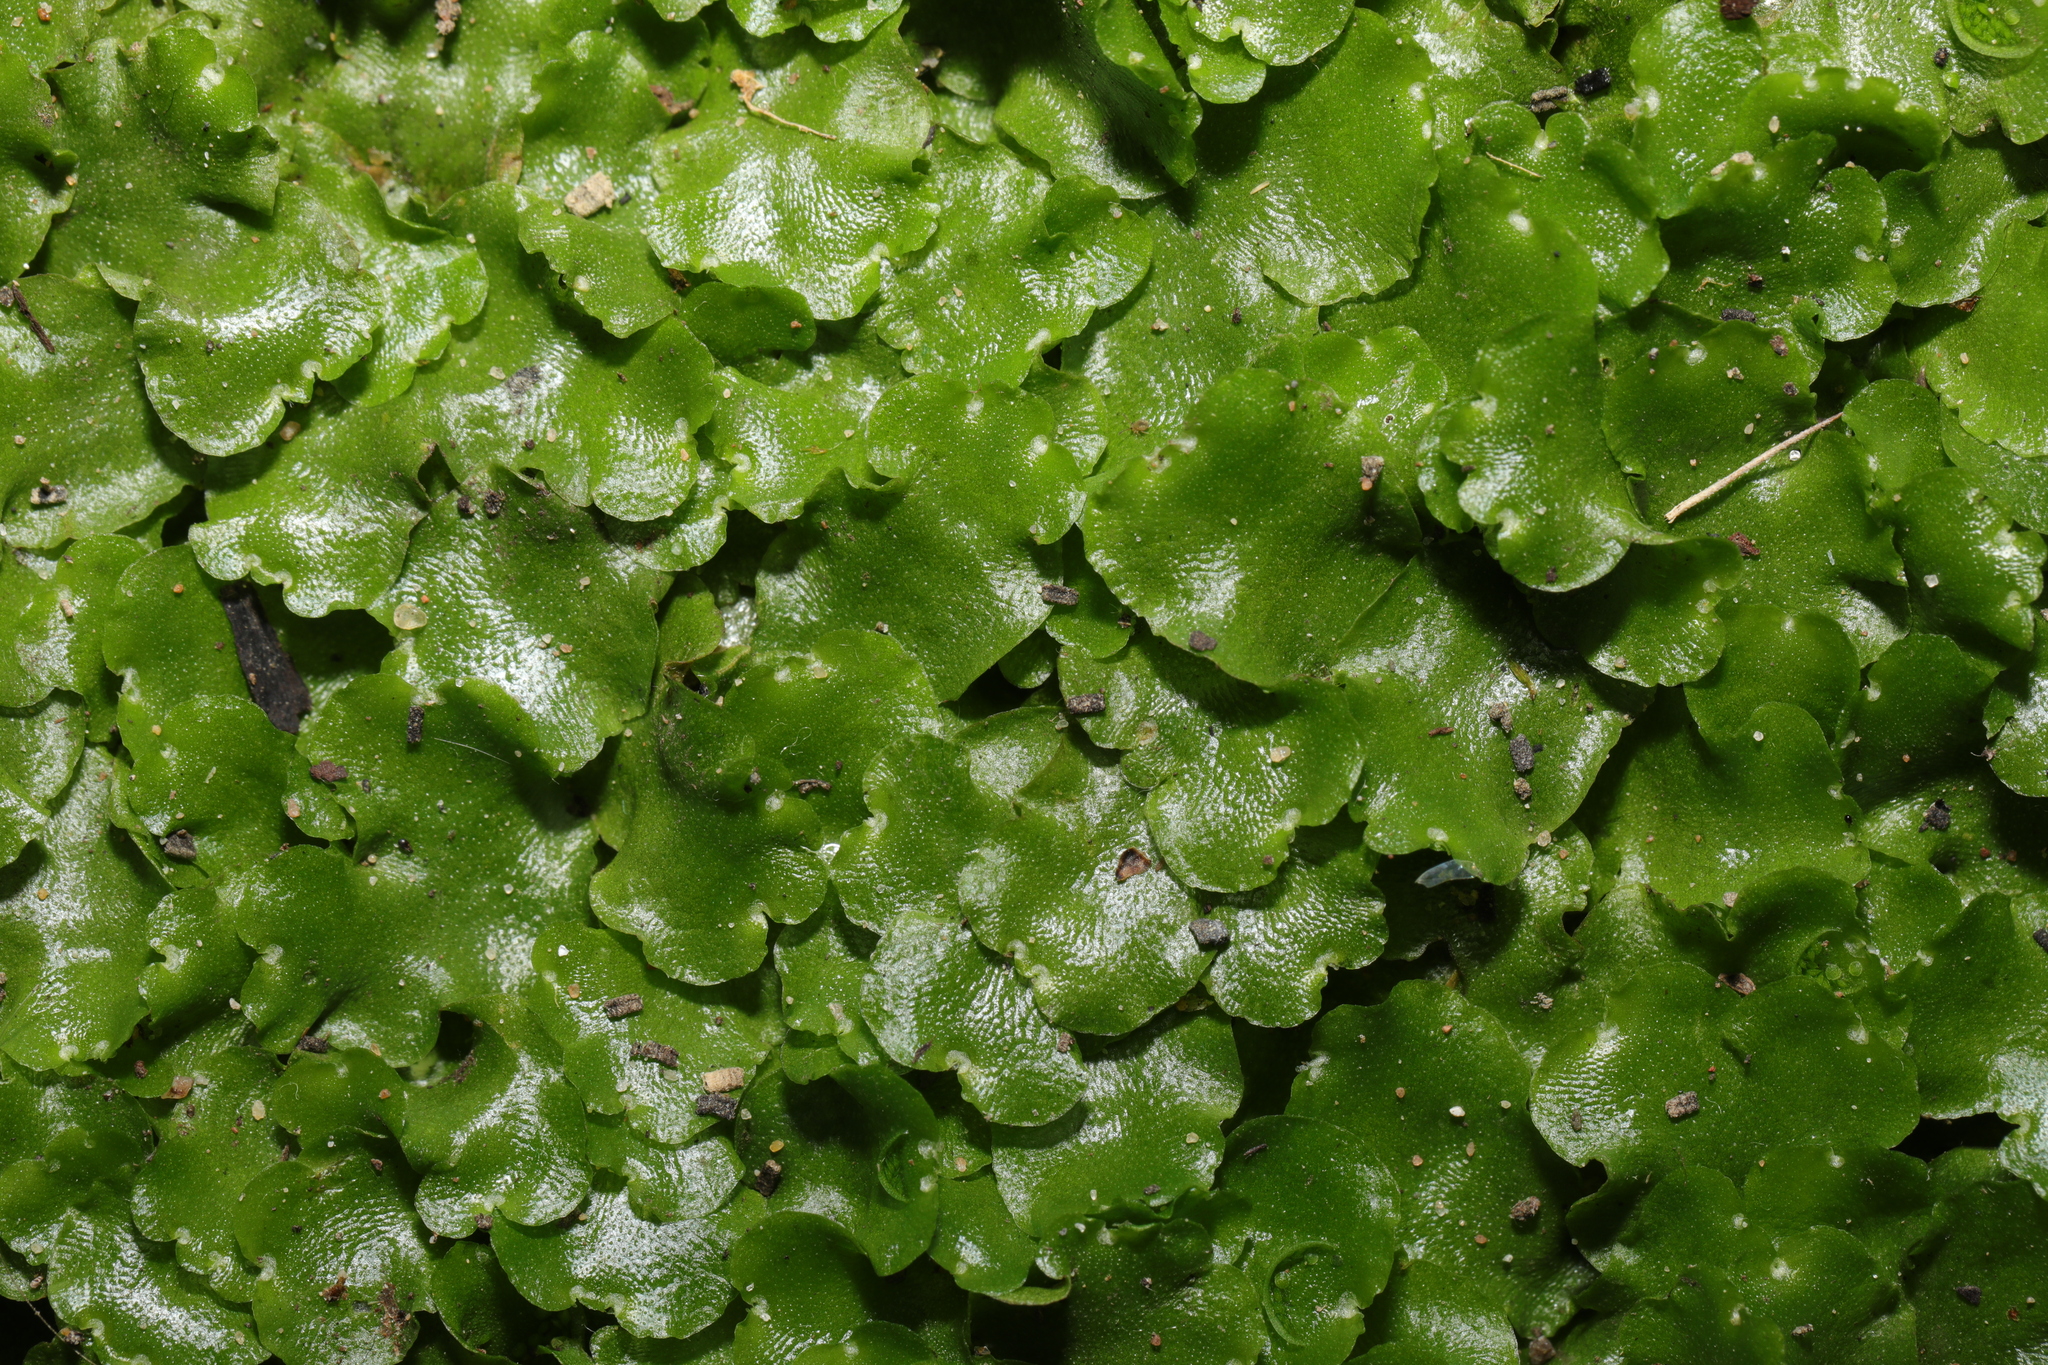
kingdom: Plantae
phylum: Marchantiophyta
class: Marchantiopsida
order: Lunulariales
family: Lunulariaceae
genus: Lunularia
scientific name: Lunularia cruciata
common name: Crescent-cup liverwort
